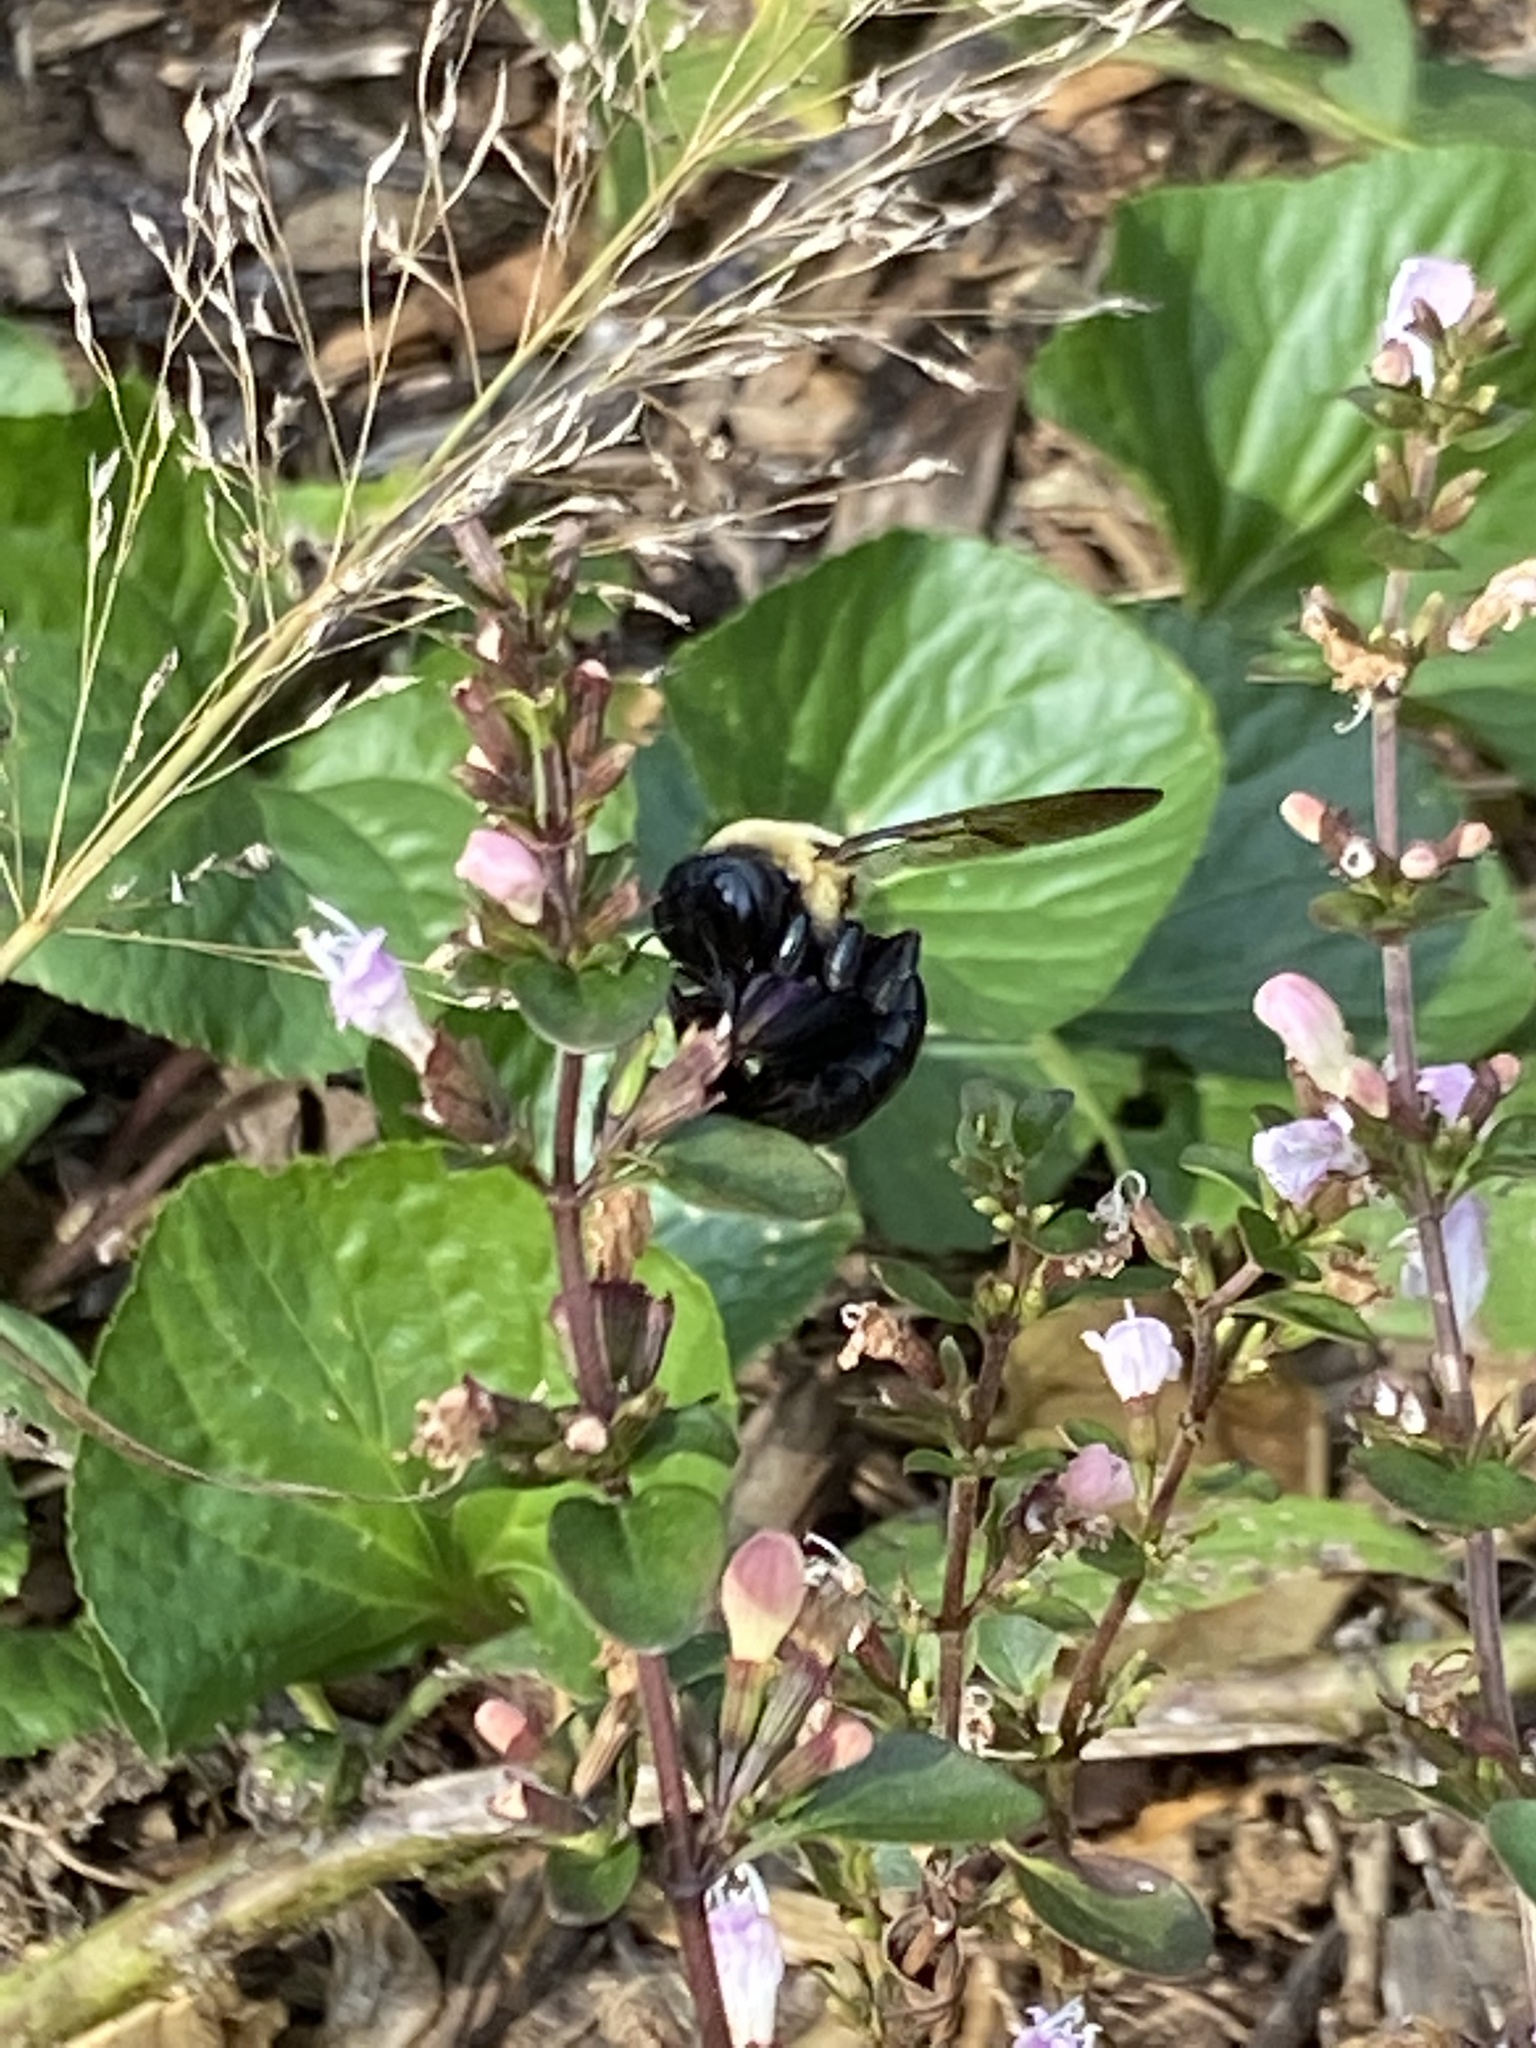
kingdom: Animalia
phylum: Arthropoda
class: Insecta
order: Hymenoptera
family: Apidae
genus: Xylocopa
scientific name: Xylocopa virginica
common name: Carpenter bee
